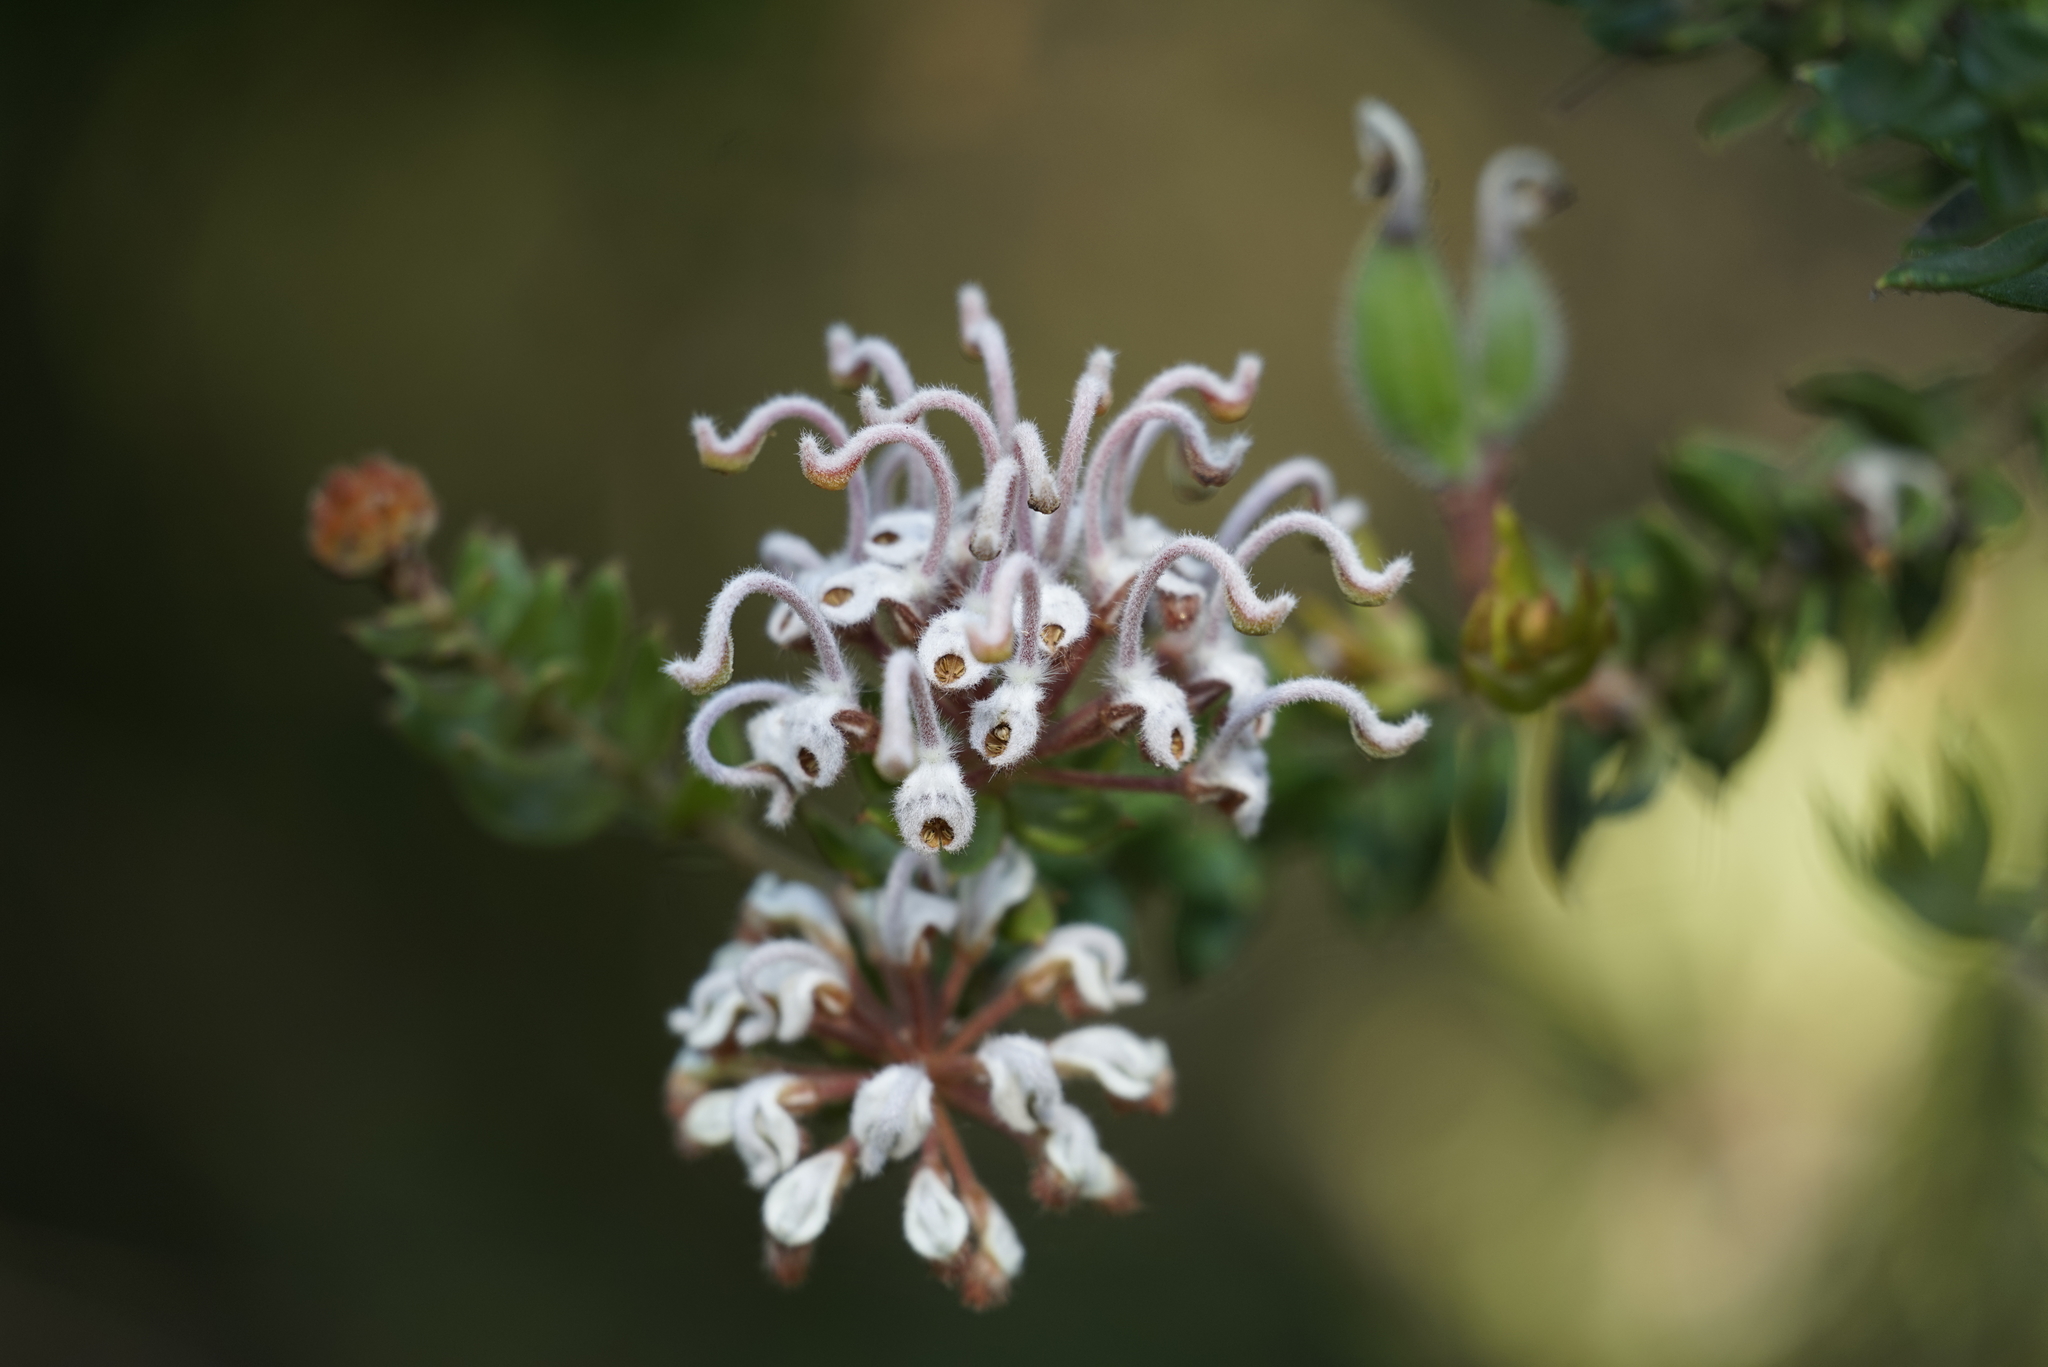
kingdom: Plantae
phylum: Tracheophyta
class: Magnoliopsida
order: Proteales
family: Proteaceae
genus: Grevillea
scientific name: Grevillea buxifolia
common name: Grey spiderflower
